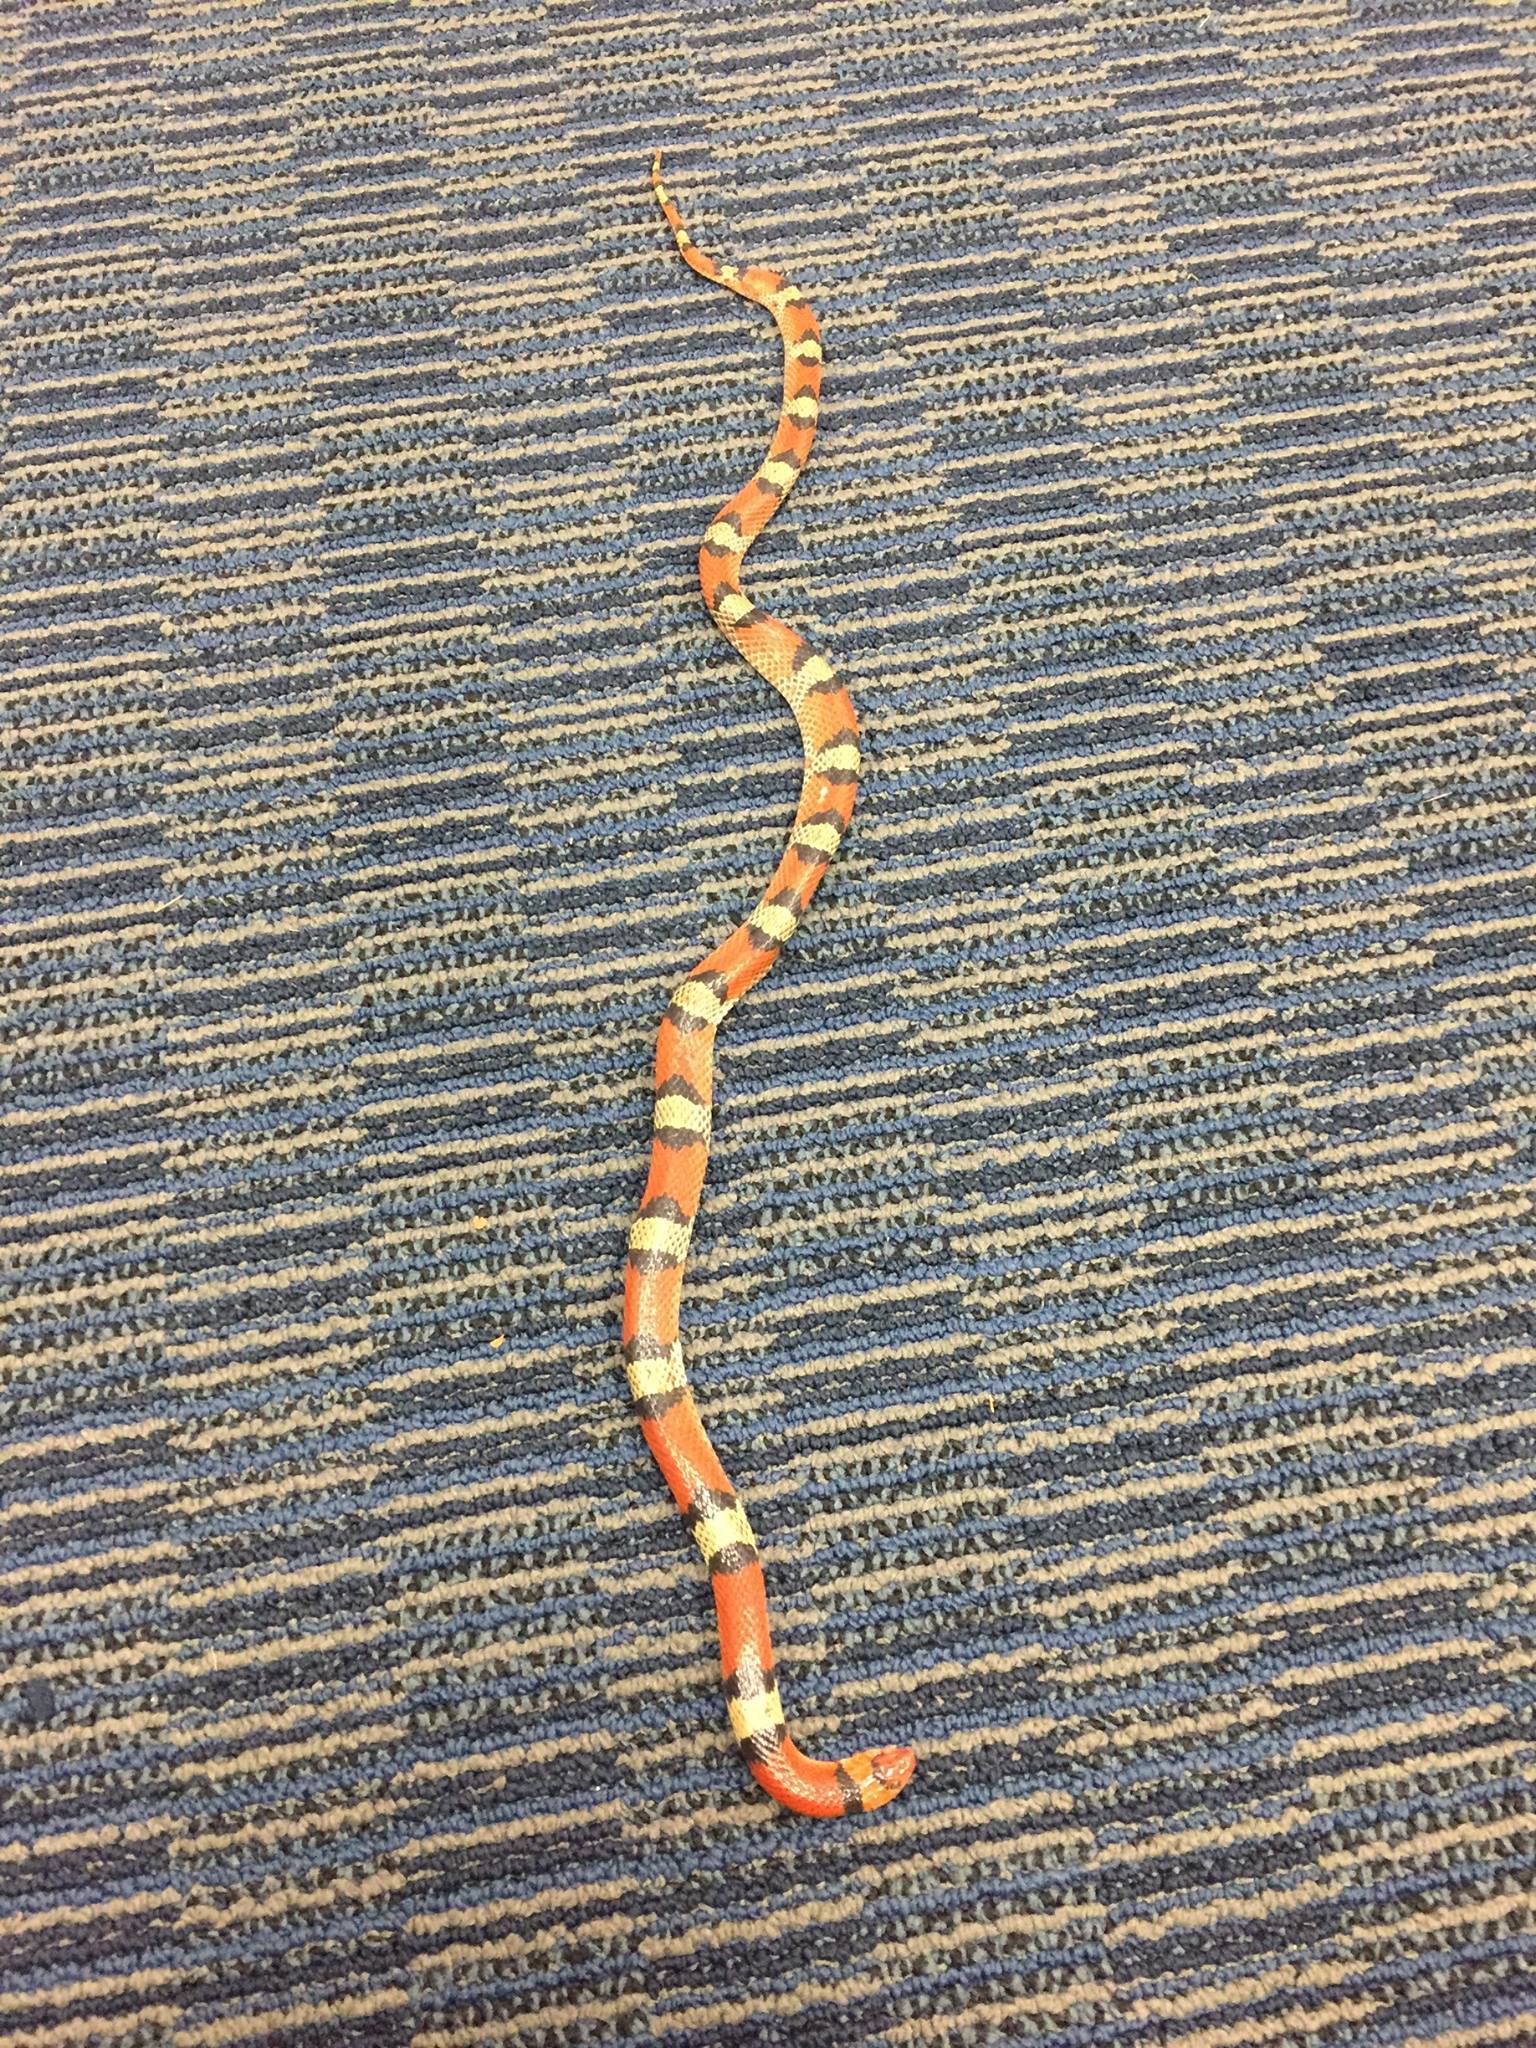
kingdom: Animalia
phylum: Chordata
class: Squamata
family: Colubridae
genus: Cemophora
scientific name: Cemophora coccinea
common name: Scarlet snake
